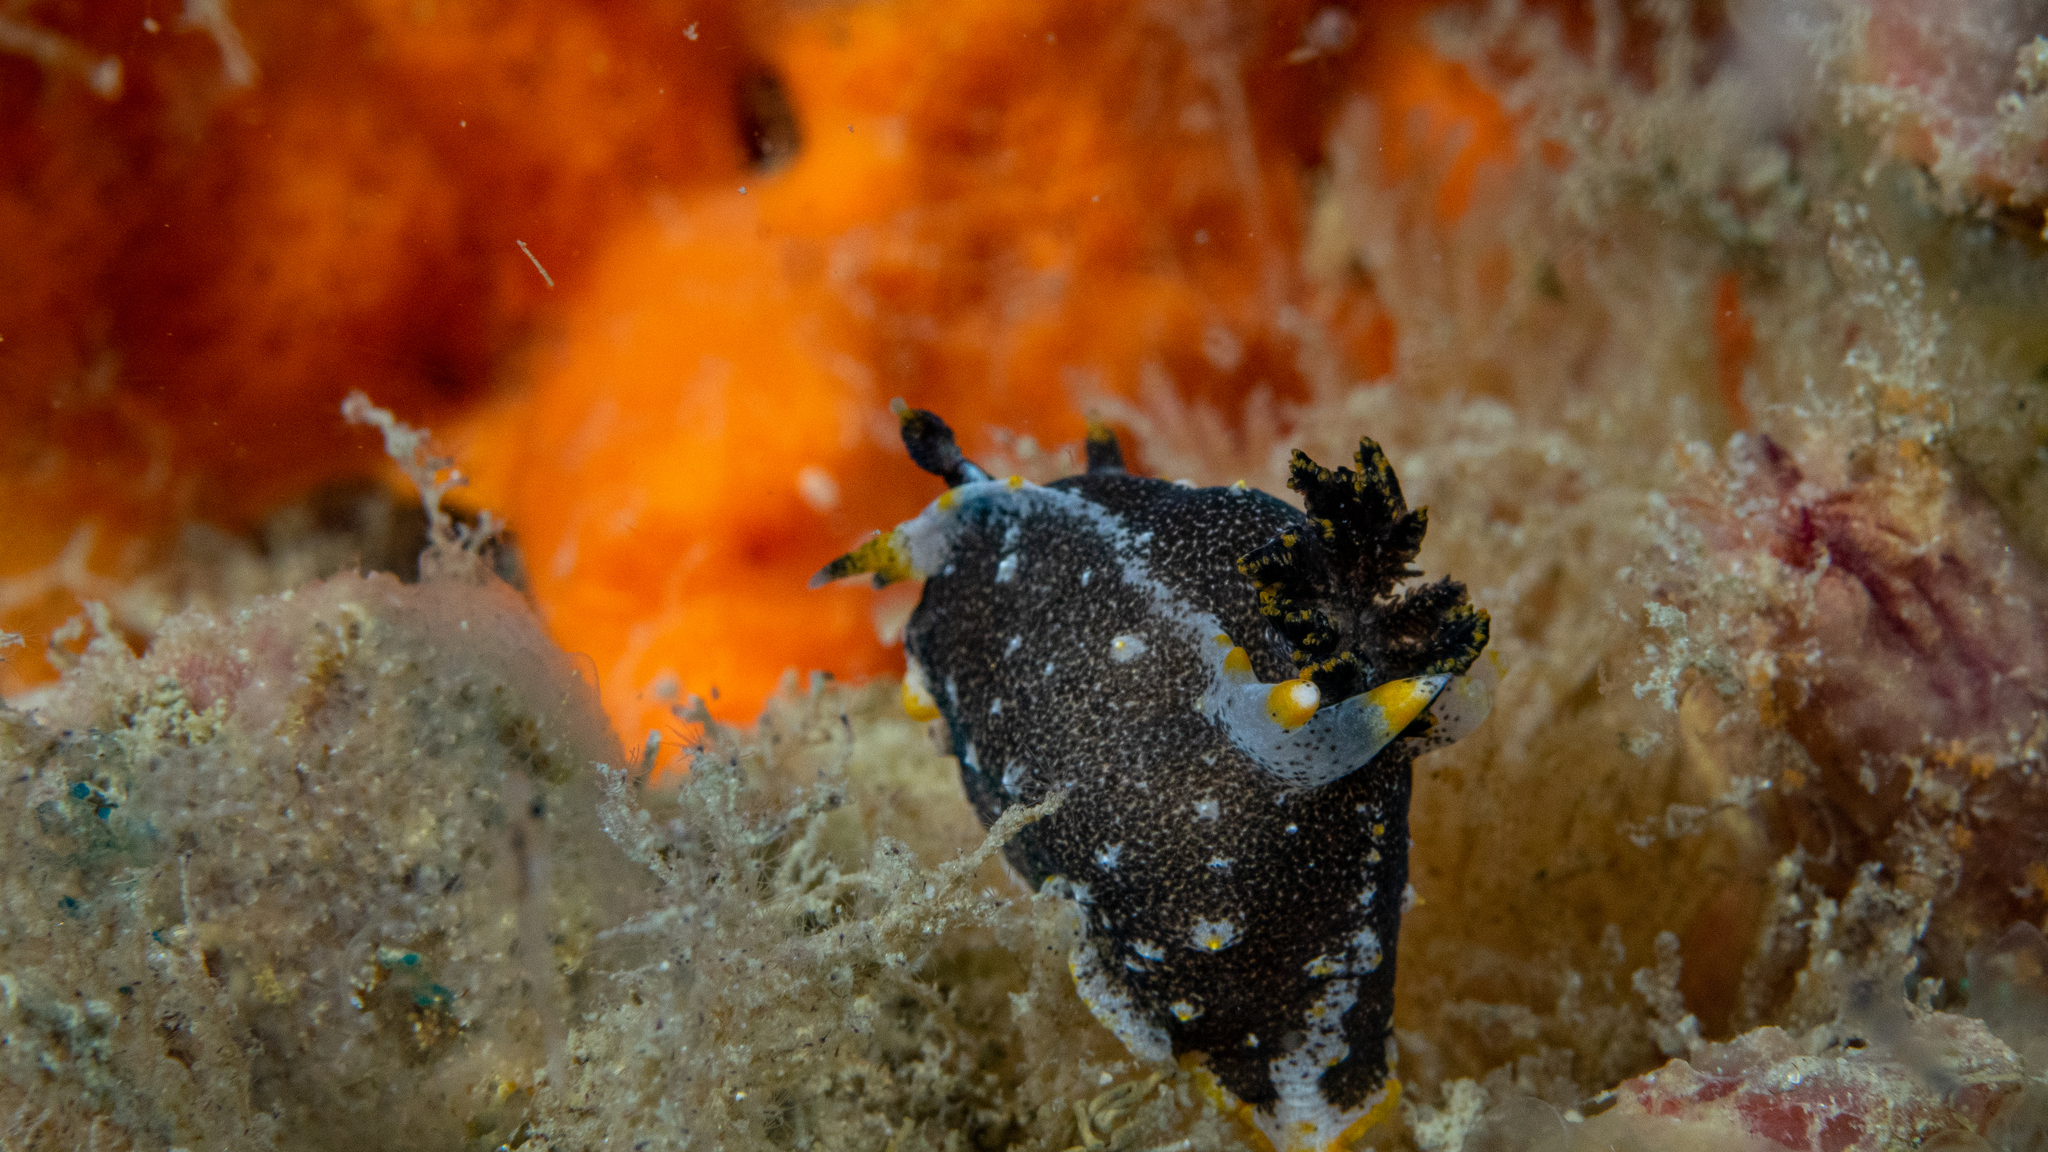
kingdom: Animalia
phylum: Mollusca
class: Gastropoda
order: Nudibranchia
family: Polyceridae
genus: Polycera
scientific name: Polycera hedgpethi
